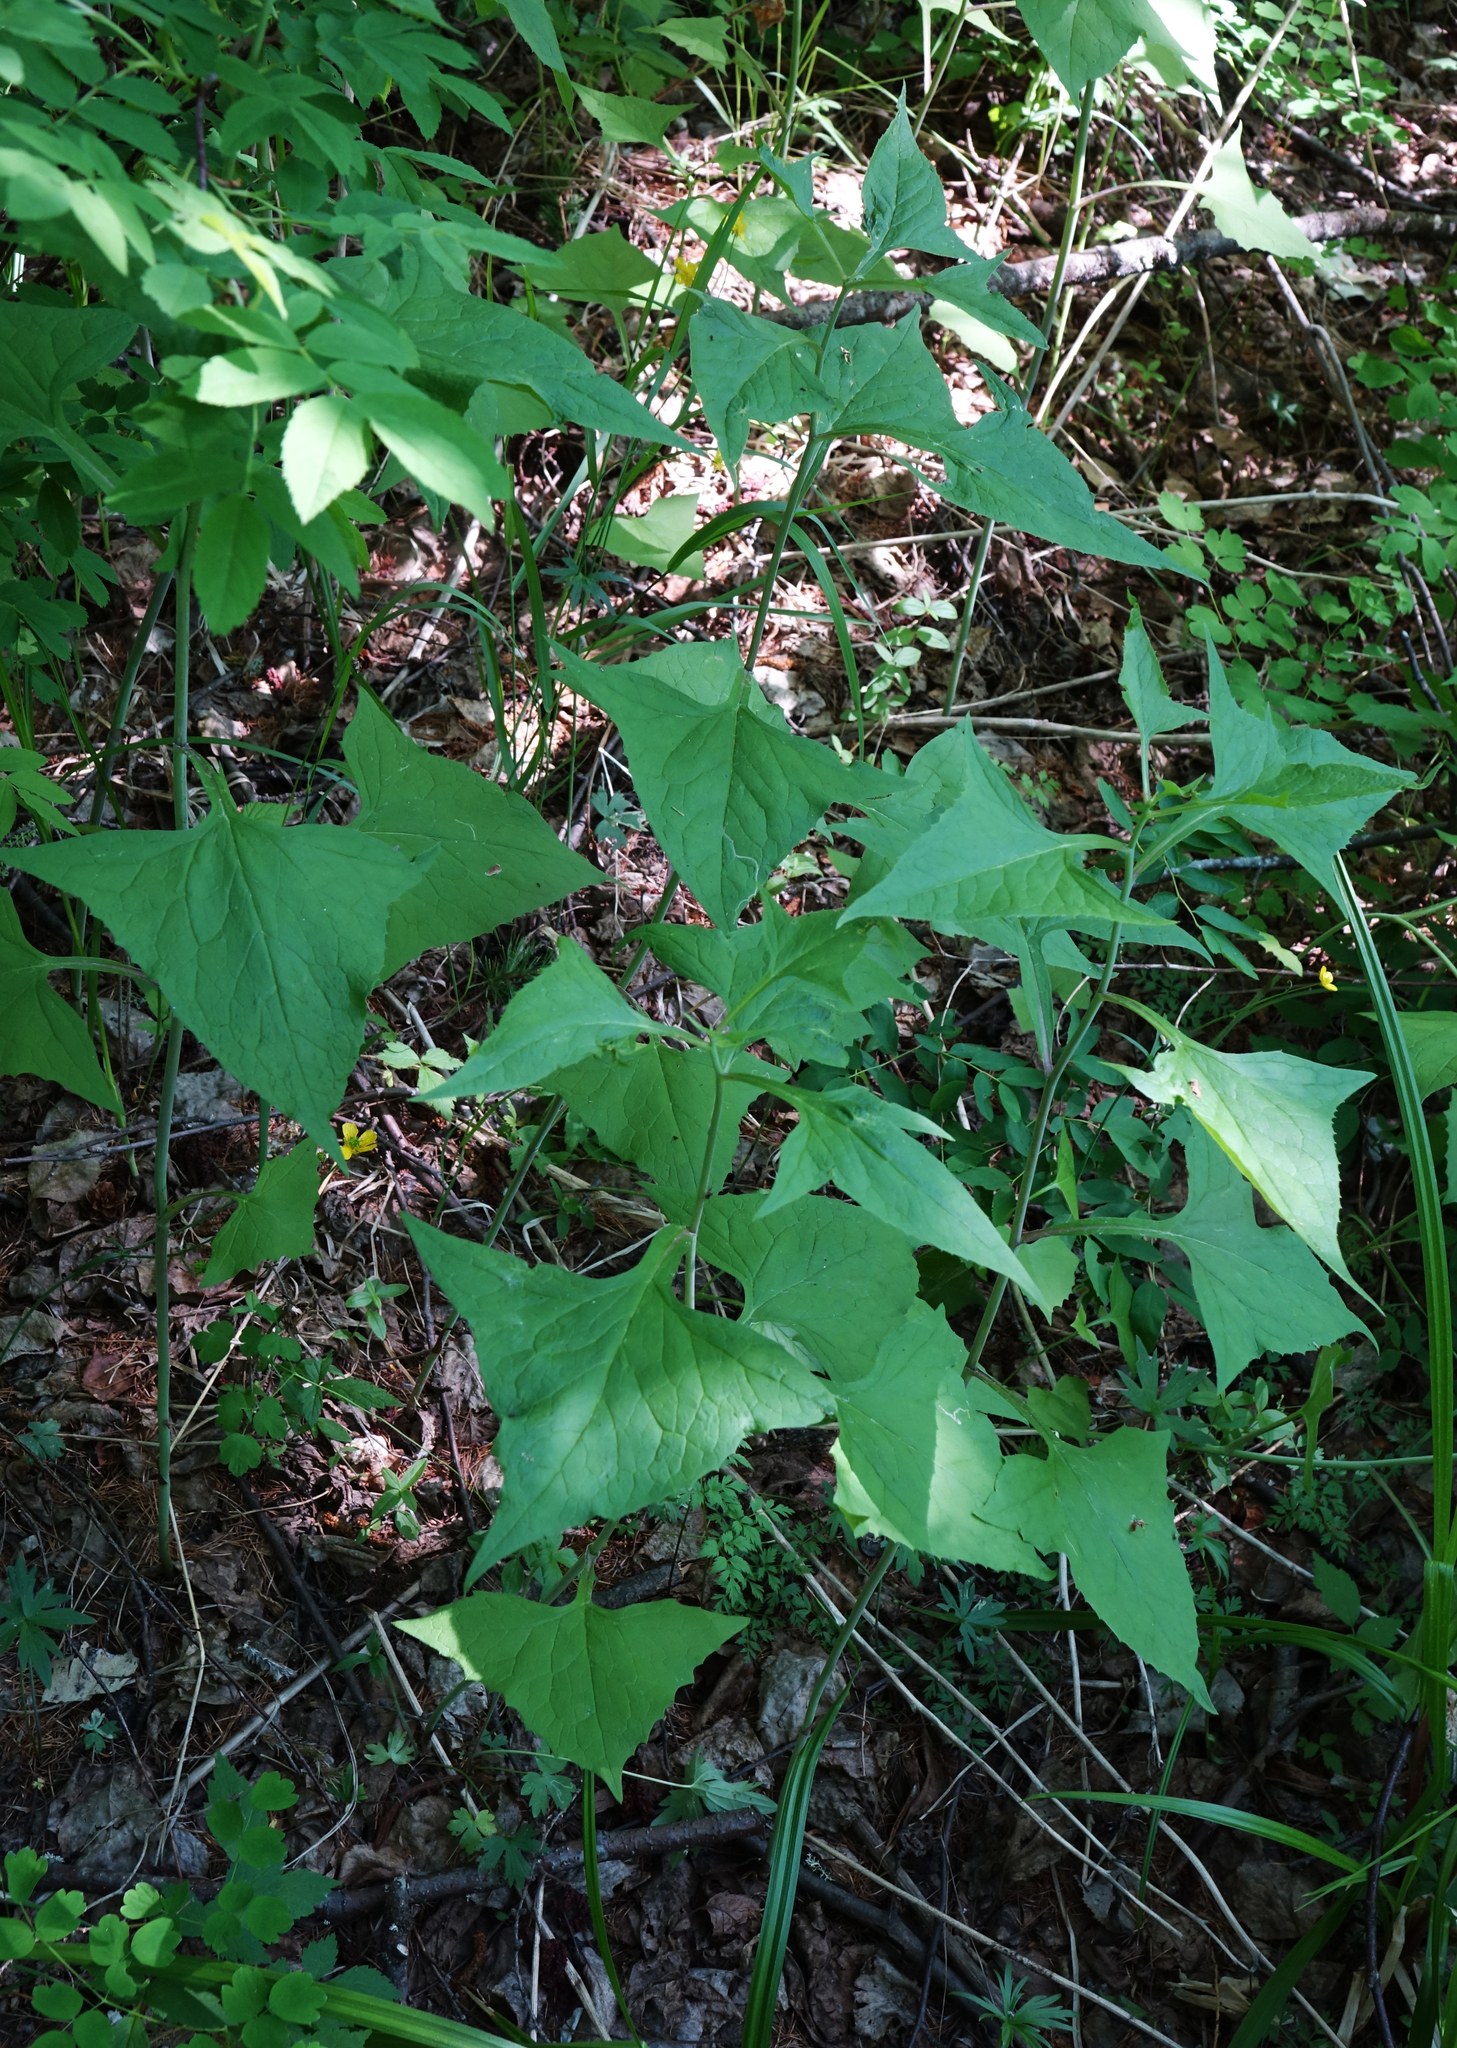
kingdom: Plantae
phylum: Tracheophyta
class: Magnoliopsida
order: Asterales
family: Asteraceae
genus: Parasenecio
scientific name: Parasenecio hastatus
